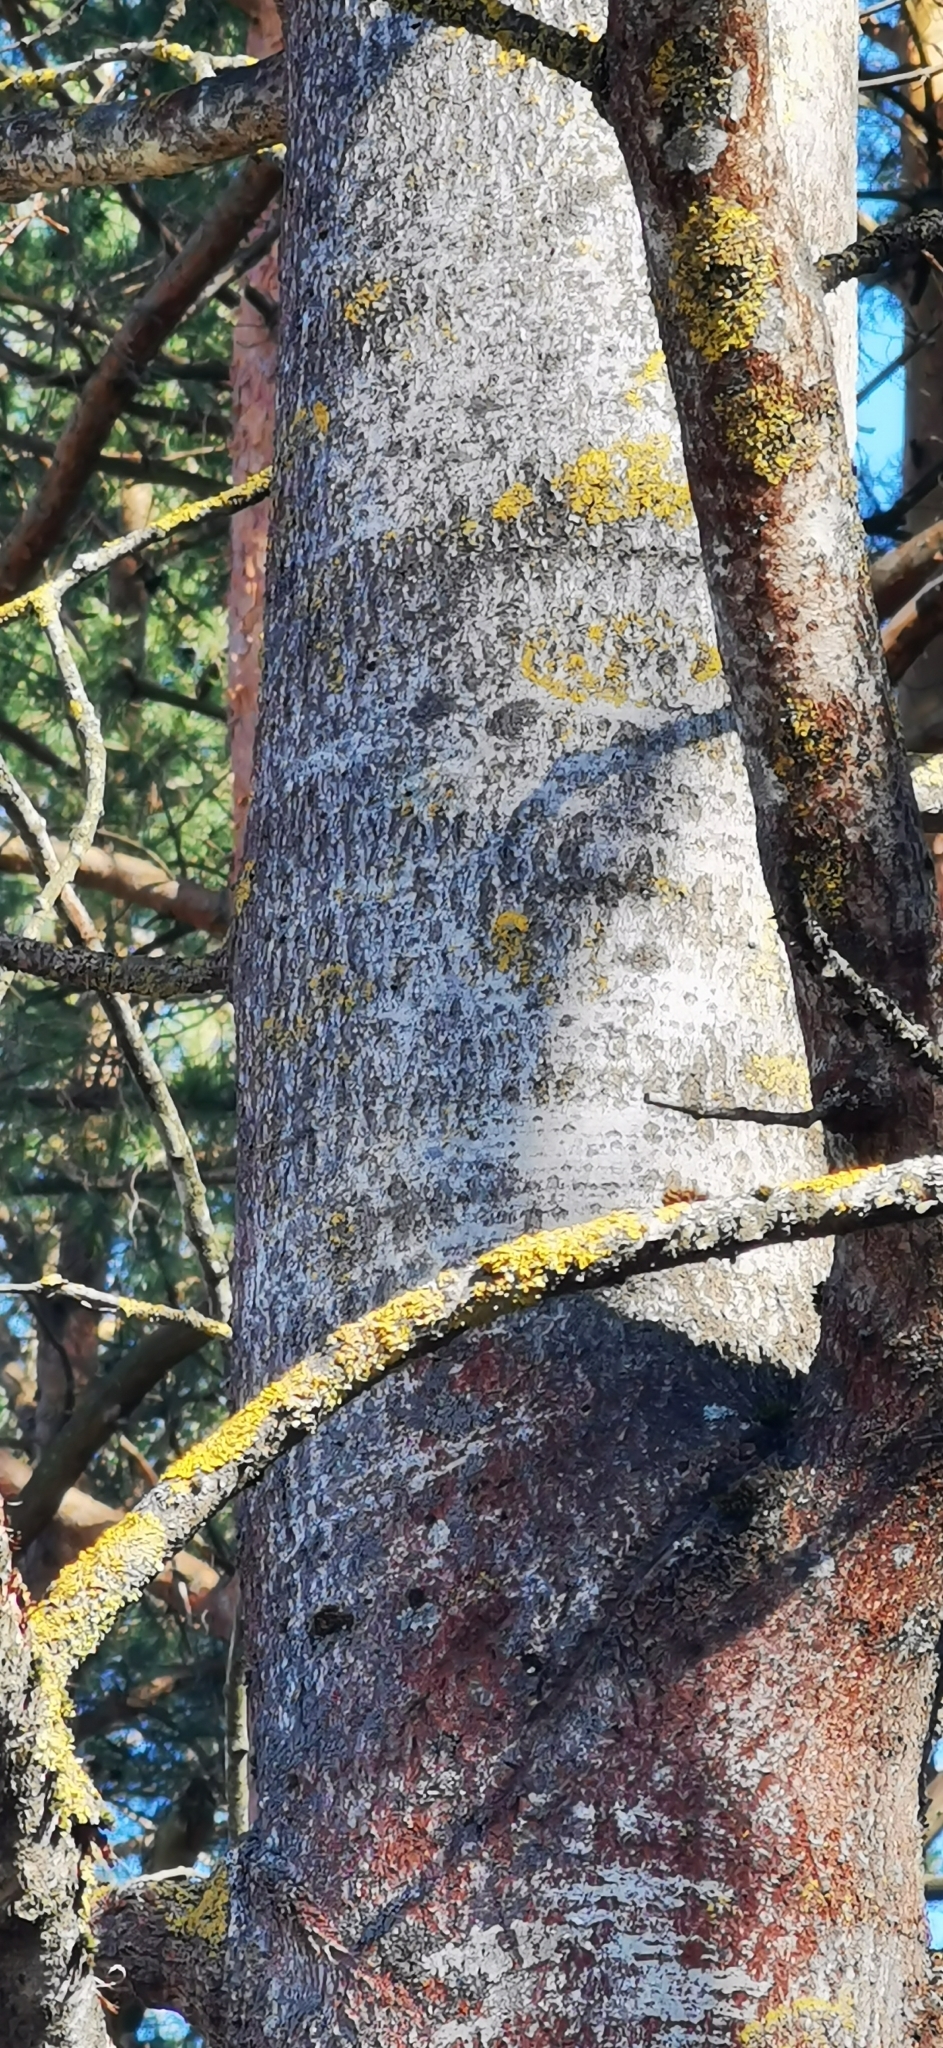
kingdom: Plantae
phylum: Tracheophyta
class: Magnoliopsida
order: Malpighiales
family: Salicaceae
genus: Populus
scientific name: Populus tremula
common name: European aspen
